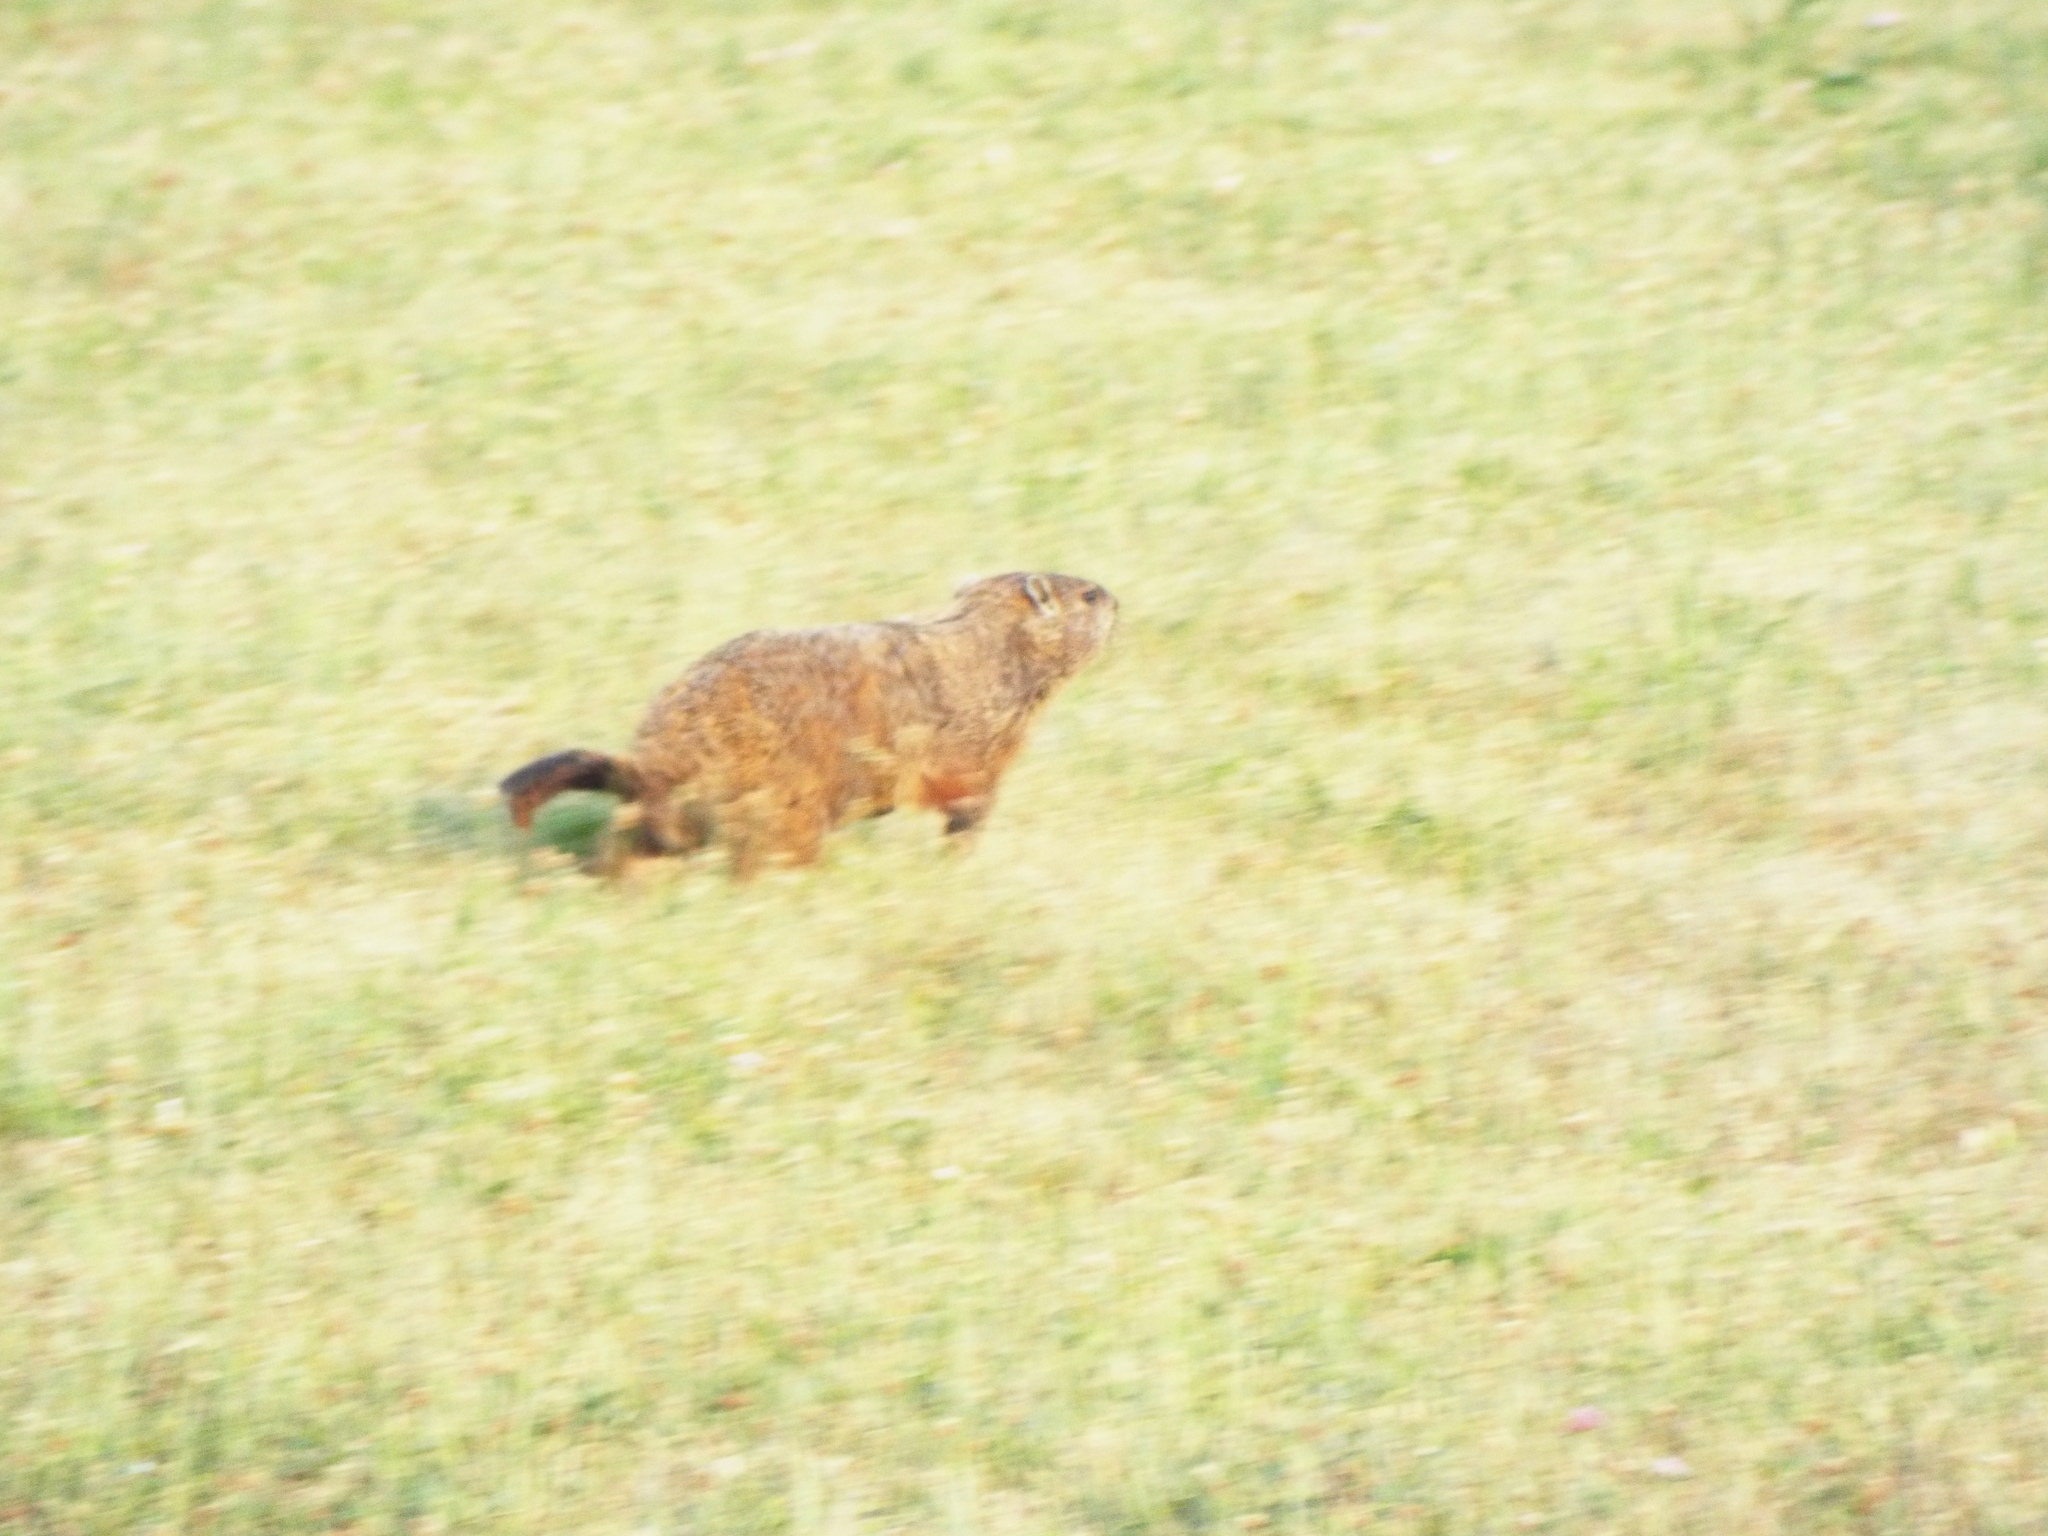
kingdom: Animalia
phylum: Chordata
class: Mammalia
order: Rodentia
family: Sciuridae
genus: Marmota
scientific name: Marmota monax
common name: Groundhog
